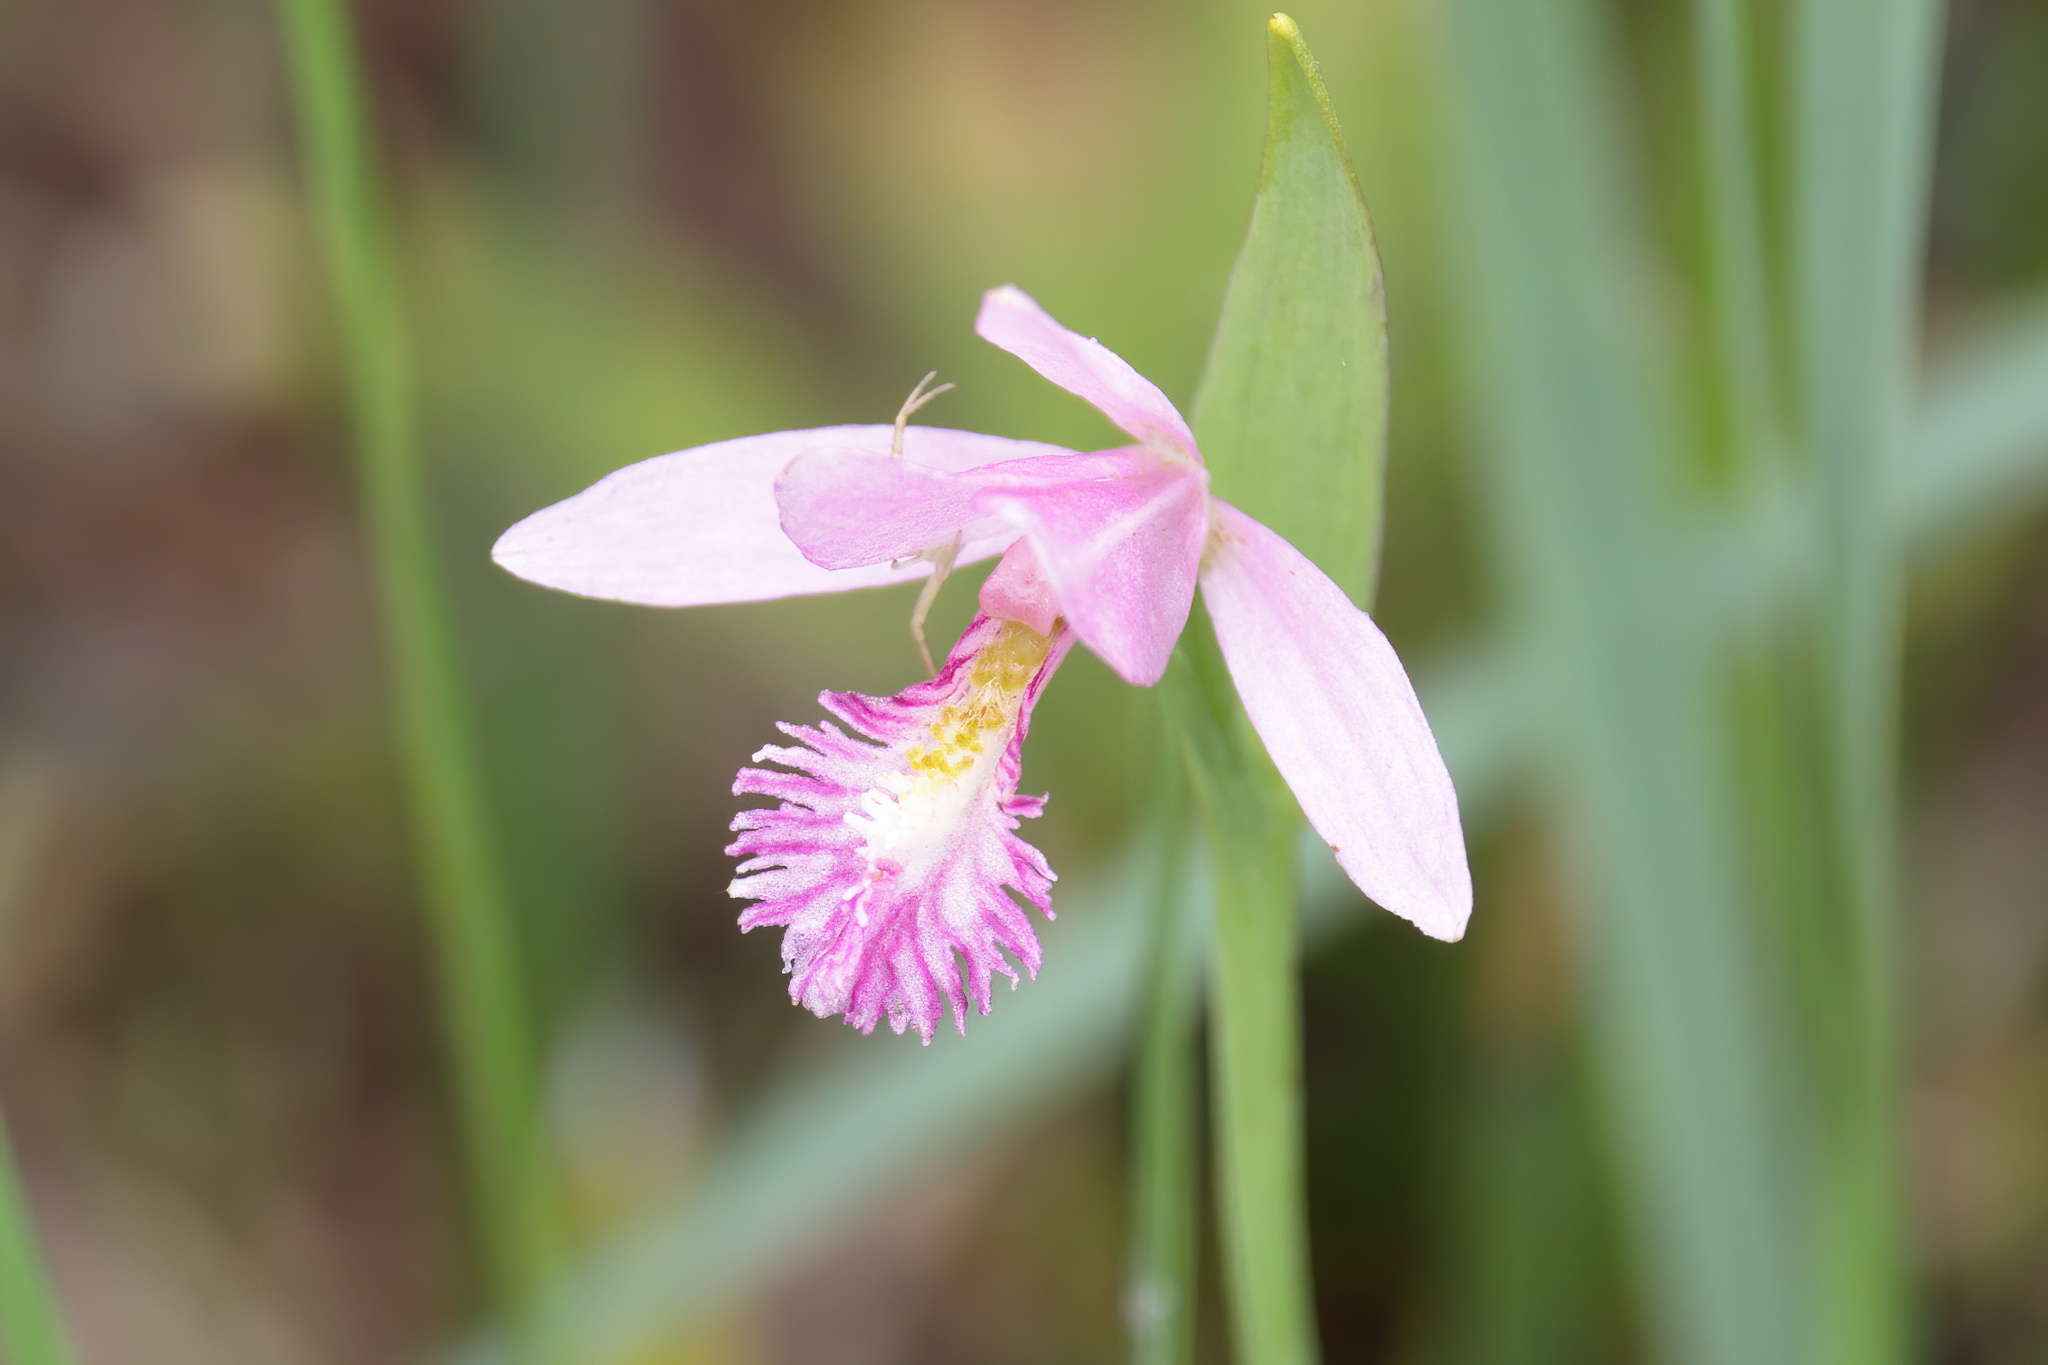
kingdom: Plantae
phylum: Tracheophyta
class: Liliopsida
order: Asparagales
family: Orchidaceae
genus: Pogonia
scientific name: Pogonia ophioglossoides
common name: Rose pogonia
